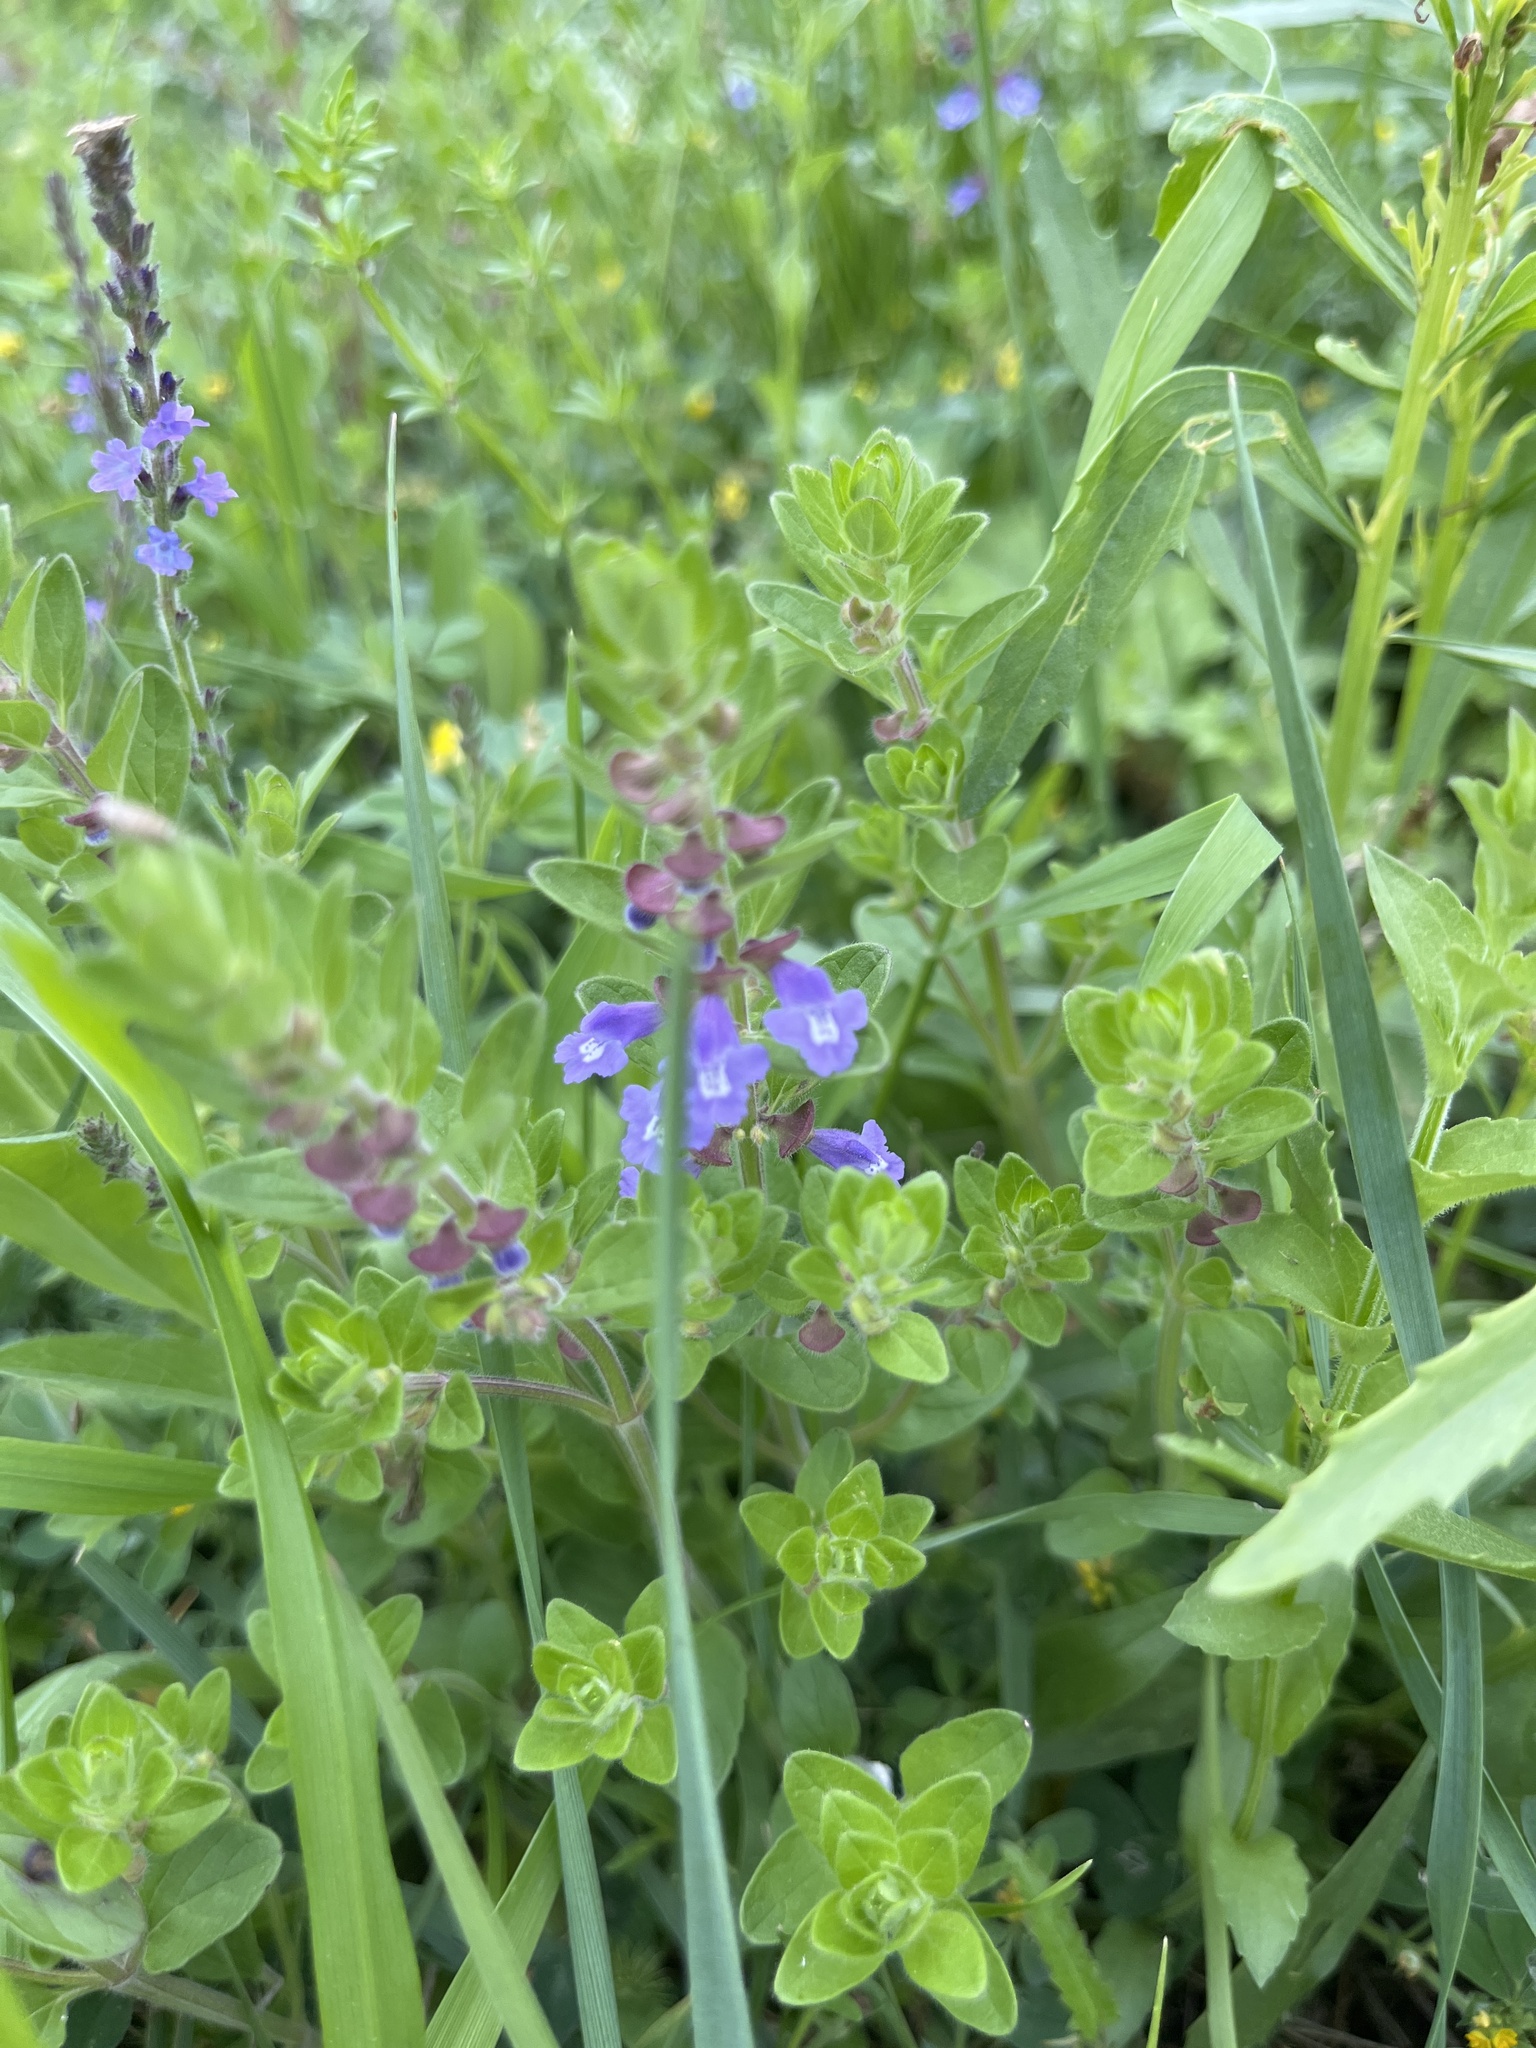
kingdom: Plantae
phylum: Tracheophyta
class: Magnoliopsida
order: Lamiales
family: Lamiaceae
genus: Scutellaria
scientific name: Scutellaria drummondii
